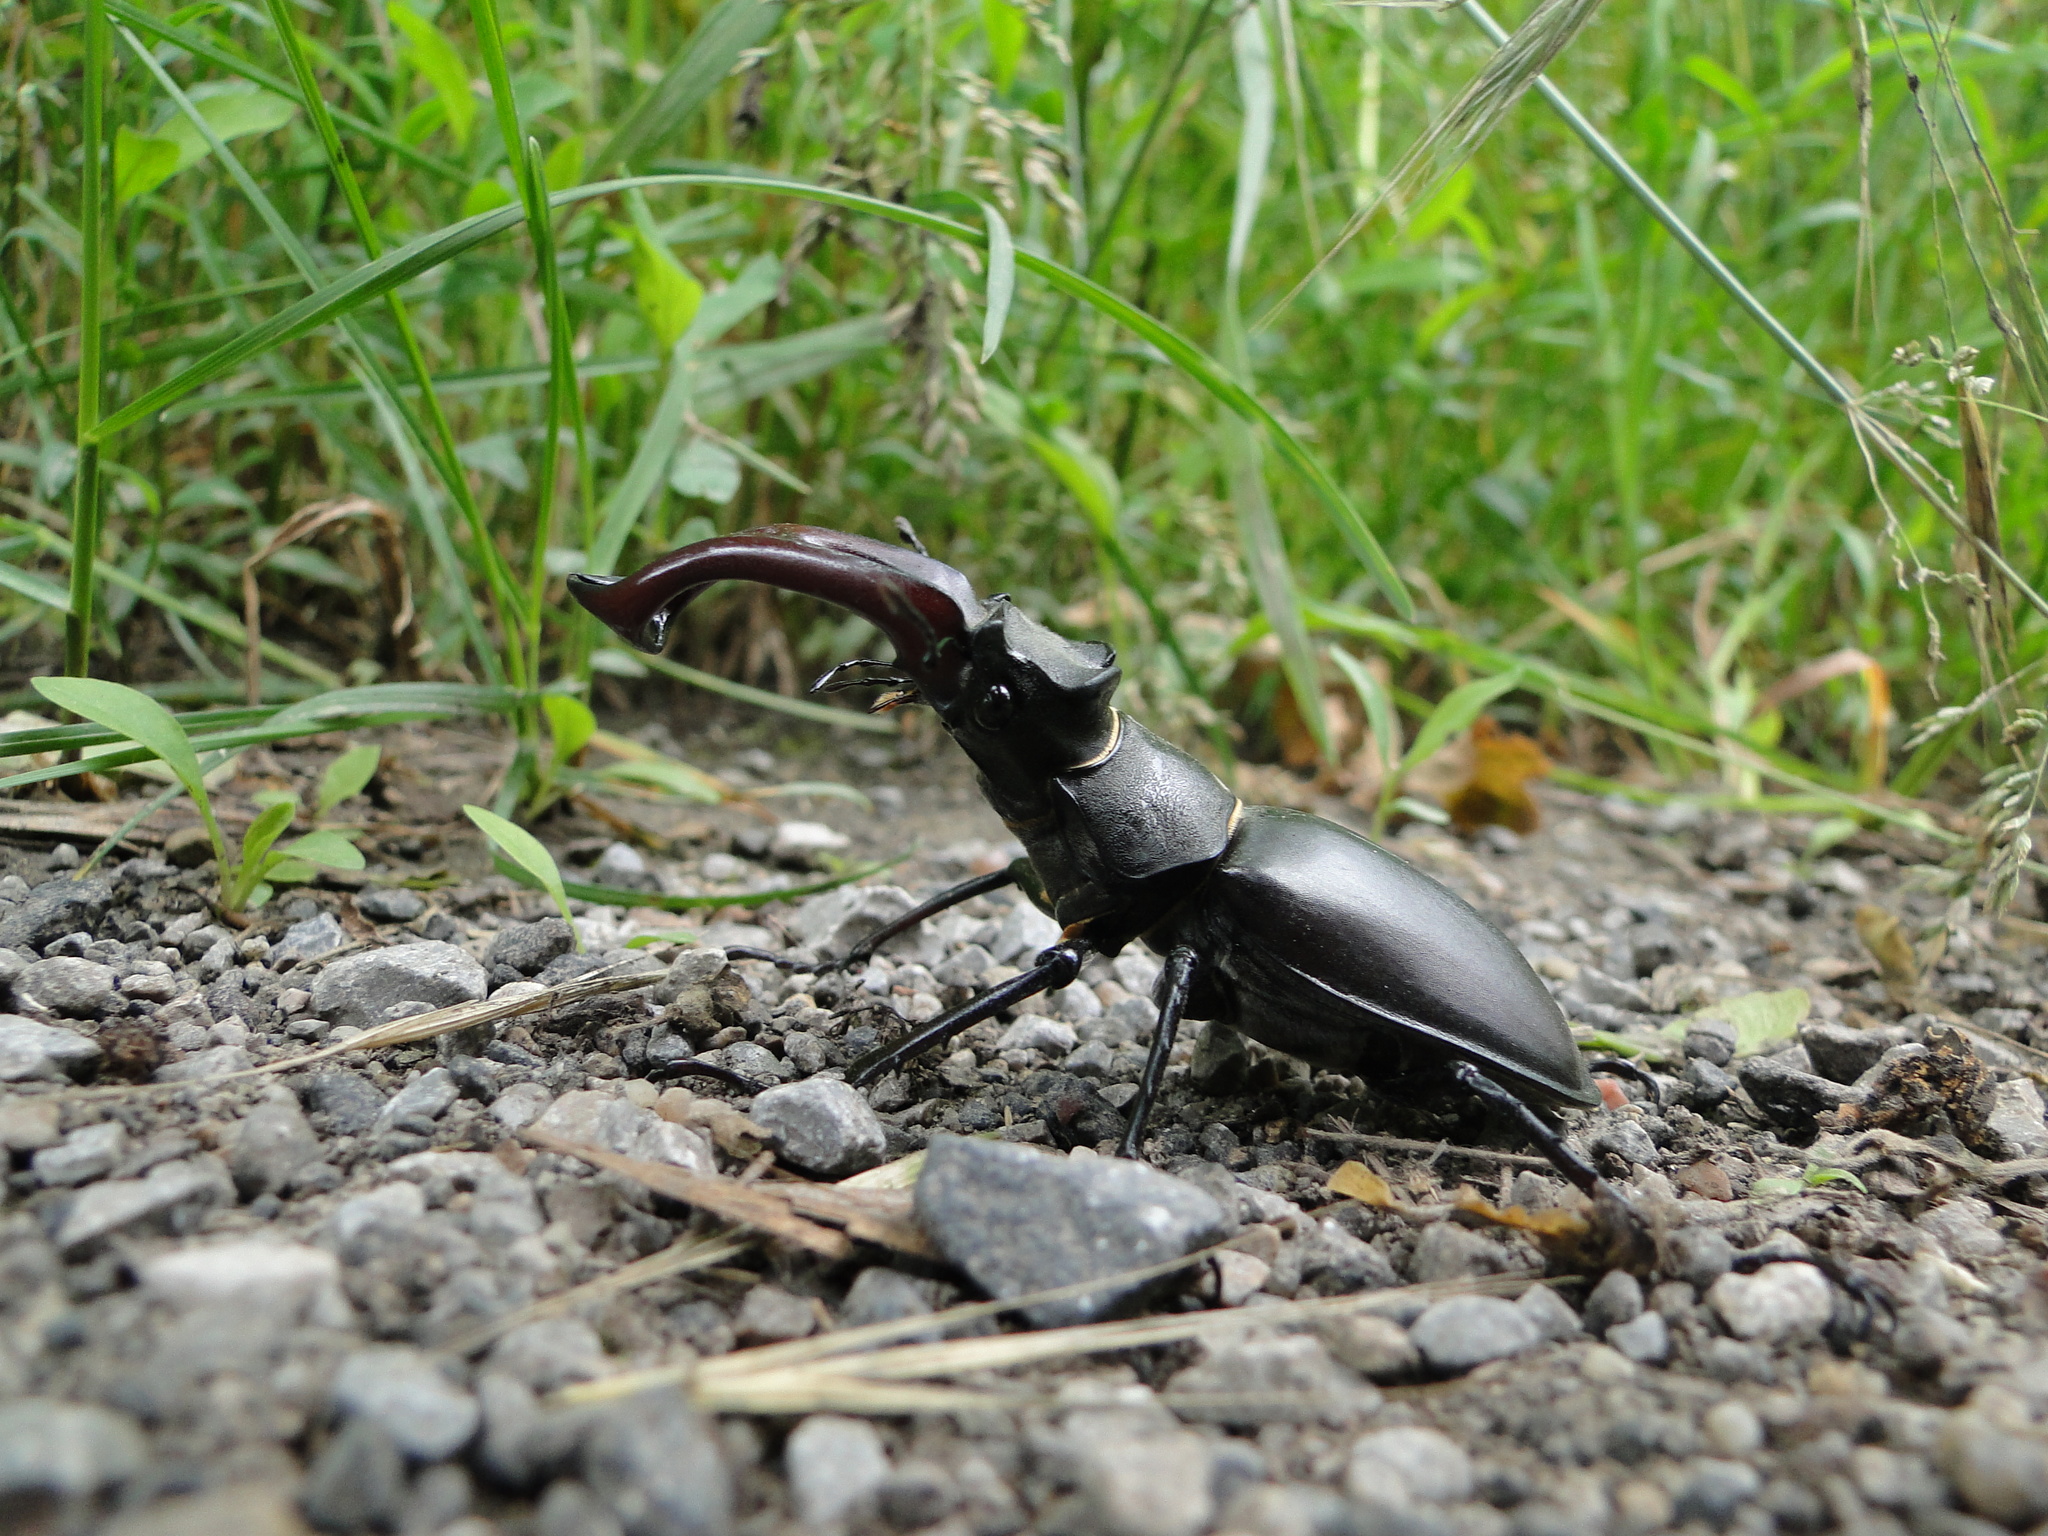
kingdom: Animalia
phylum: Arthropoda
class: Insecta
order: Coleoptera
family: Lucanidae
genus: Lucanus
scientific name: Lucanus cervus
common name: Stag beetle
